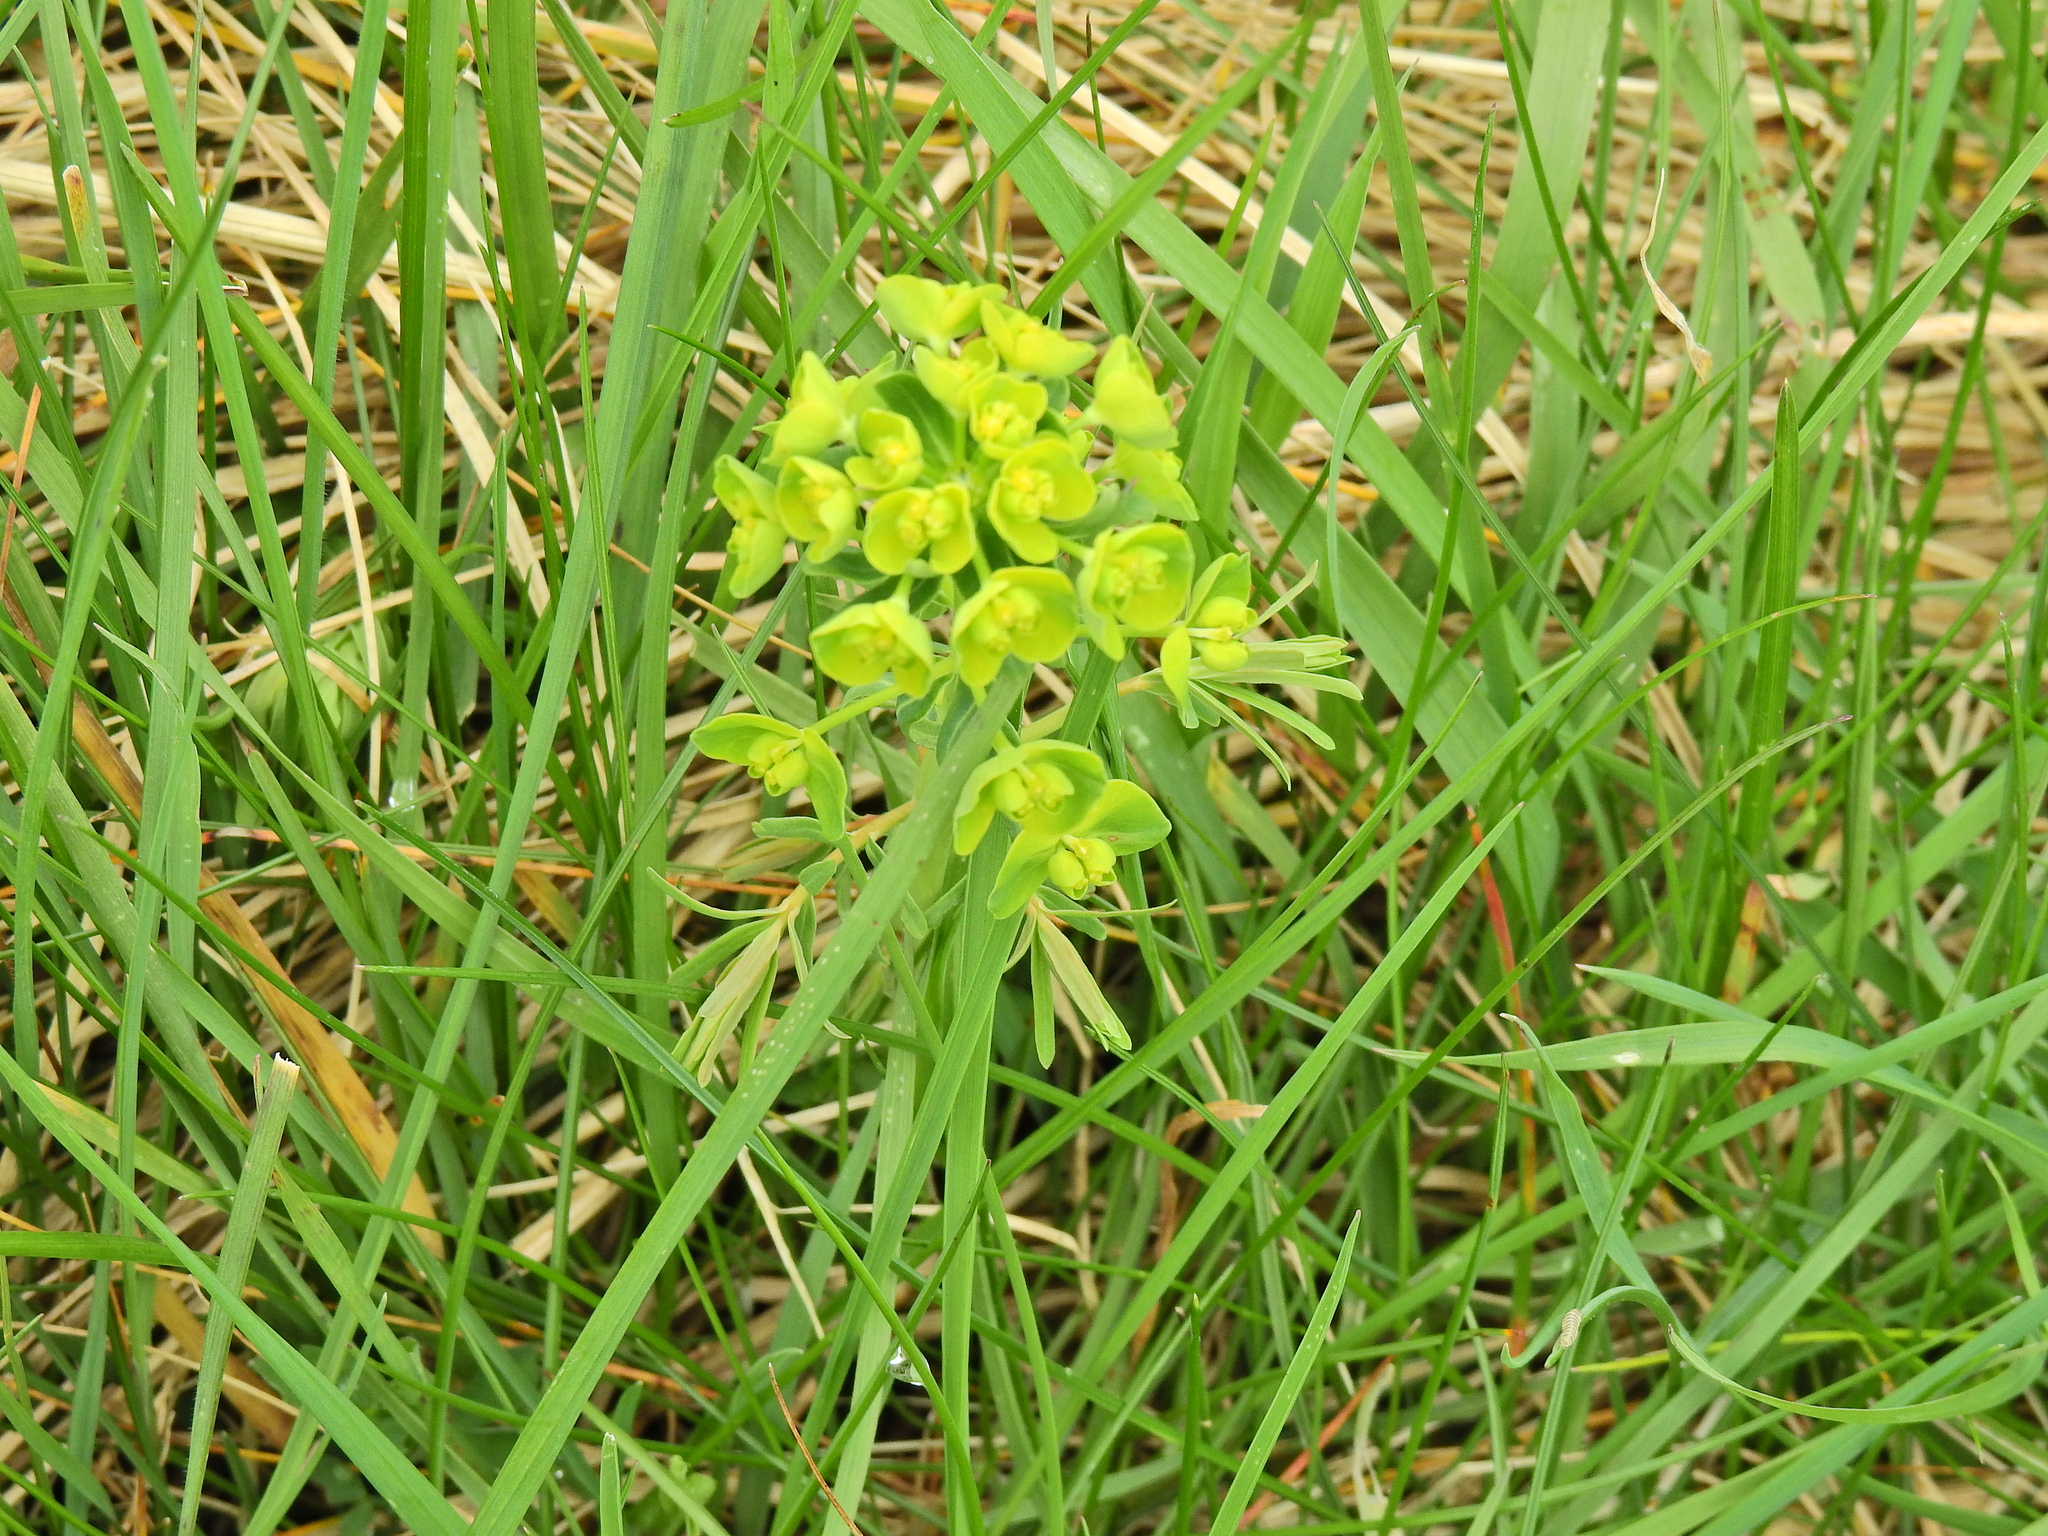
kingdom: Plantae
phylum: Tracheophyta
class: Magnoliopsida
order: Malpighiales
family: Euphorbiaceae
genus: Euphorbia
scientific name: Euphorbia cyparissias
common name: Cypress spurge
